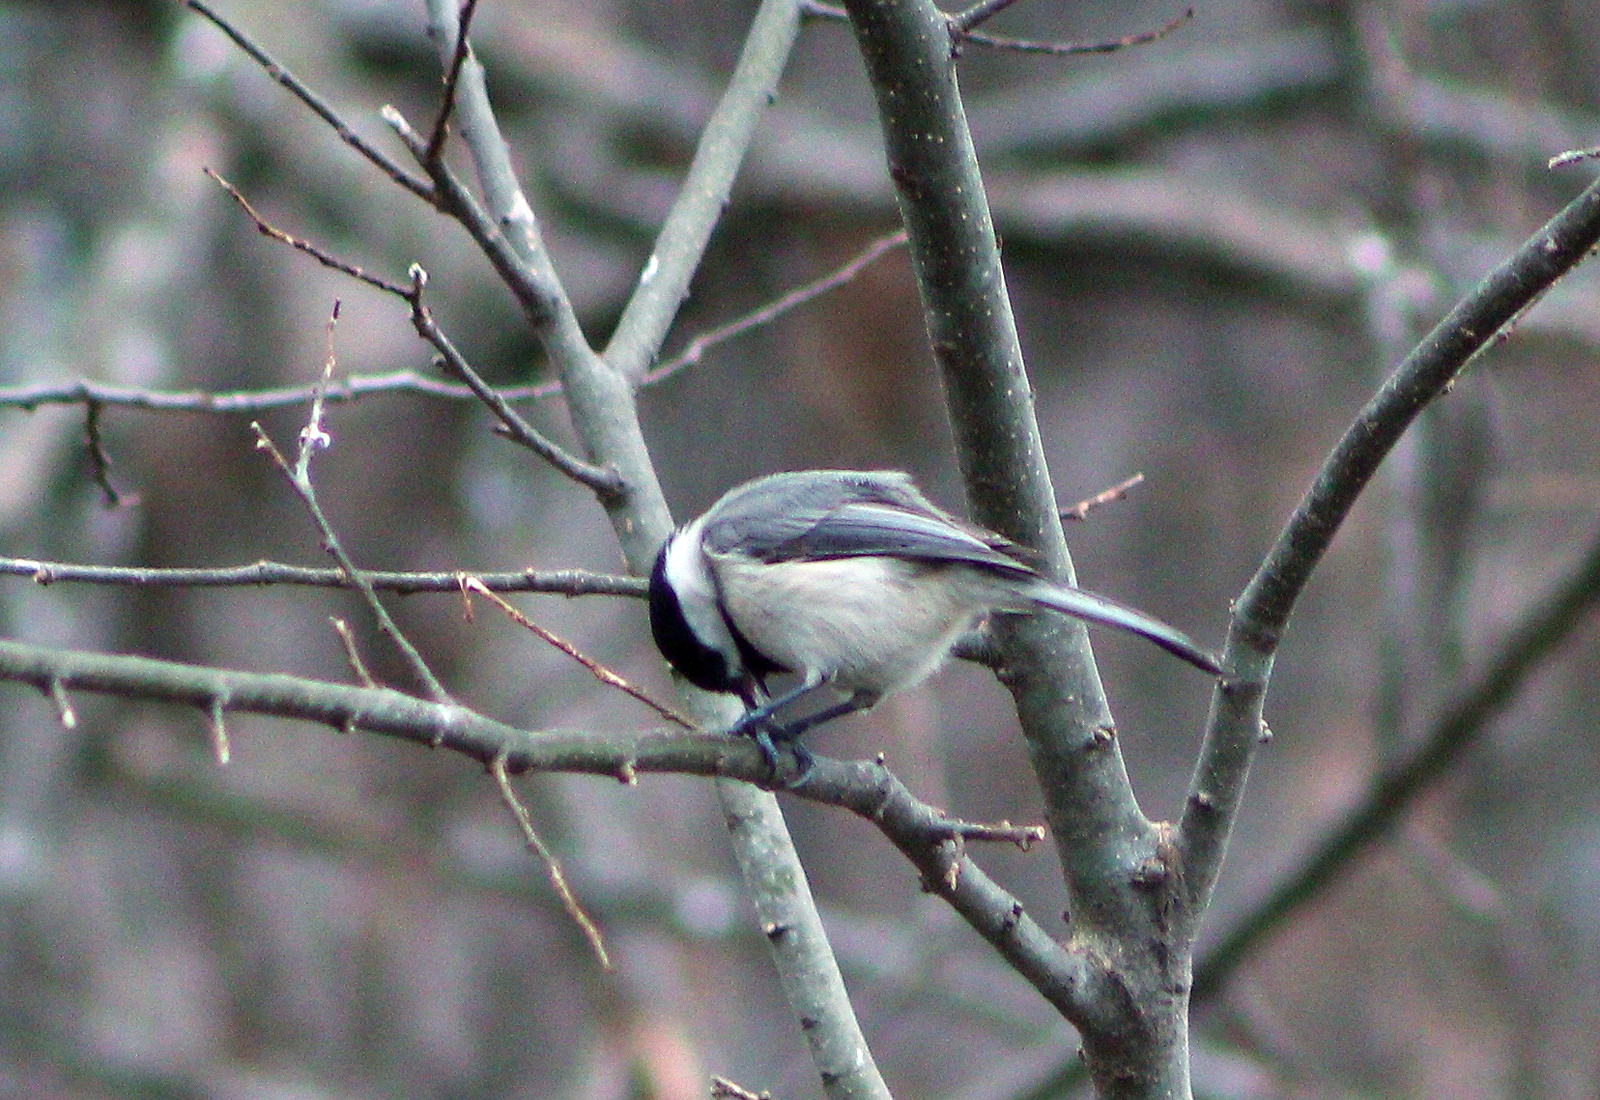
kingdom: Animalia
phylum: Chordata
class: Aves
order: Passeriformes
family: Paridae
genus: Poecile
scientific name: Poecile carolinensis
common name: Carolina chickadee
